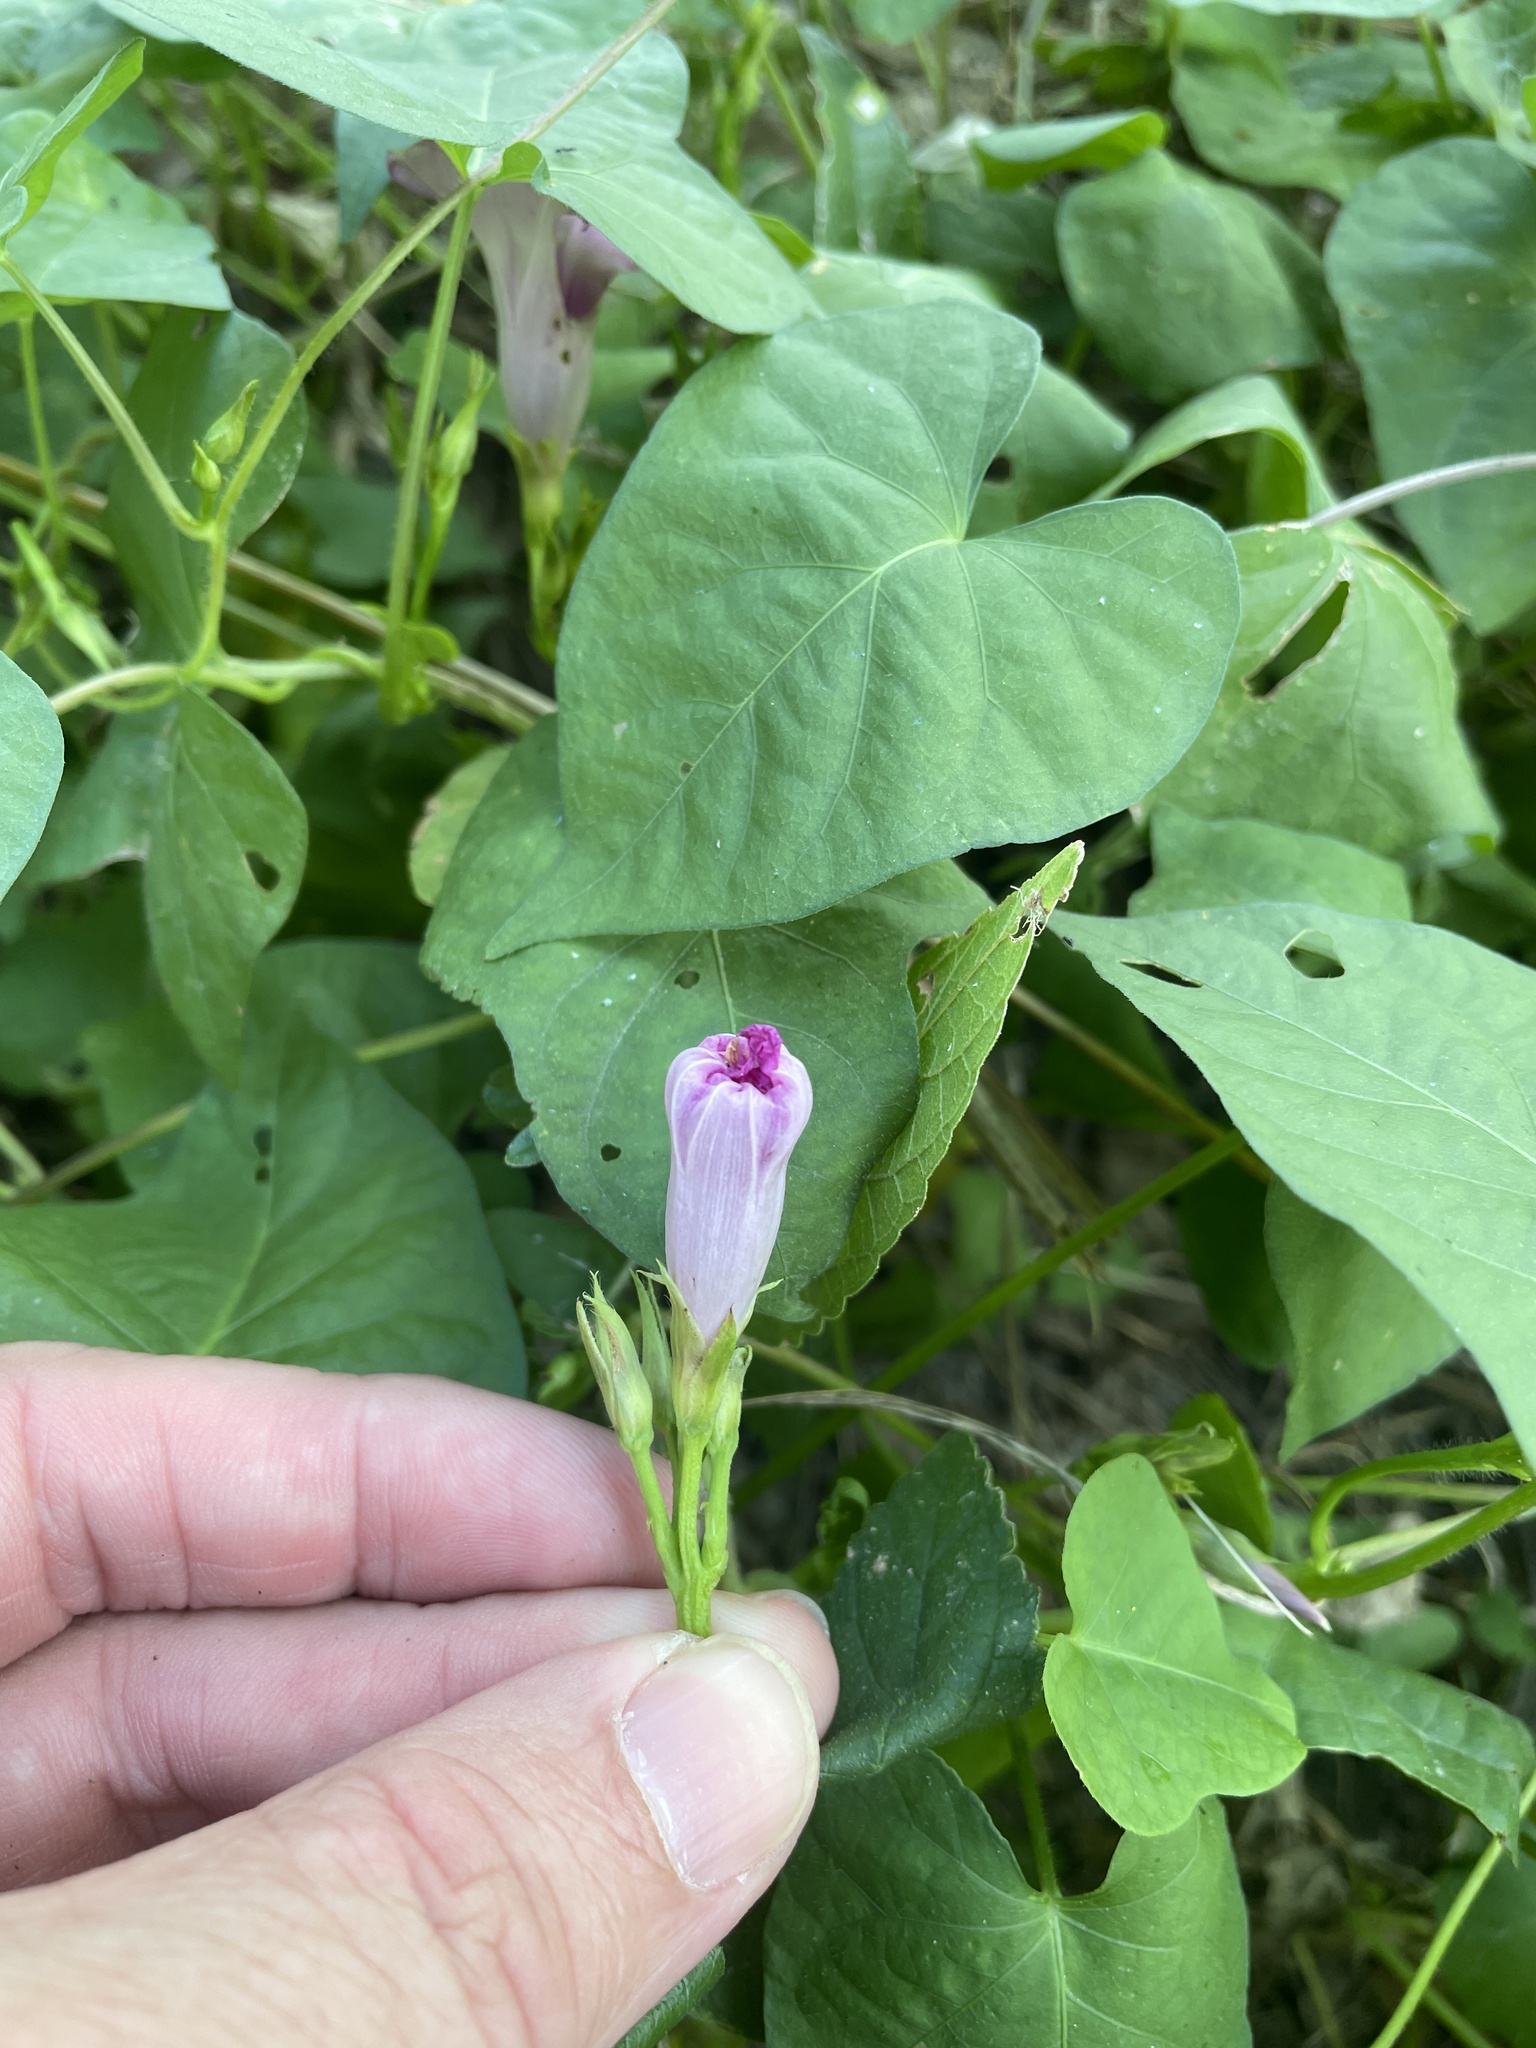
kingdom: Plantae
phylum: Tracheophyta
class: Magnoliopsida
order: Solanales
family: Convolvulaceae
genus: Ipomoea
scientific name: Ipomoea cordatotriloba
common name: Cotton morning glory
